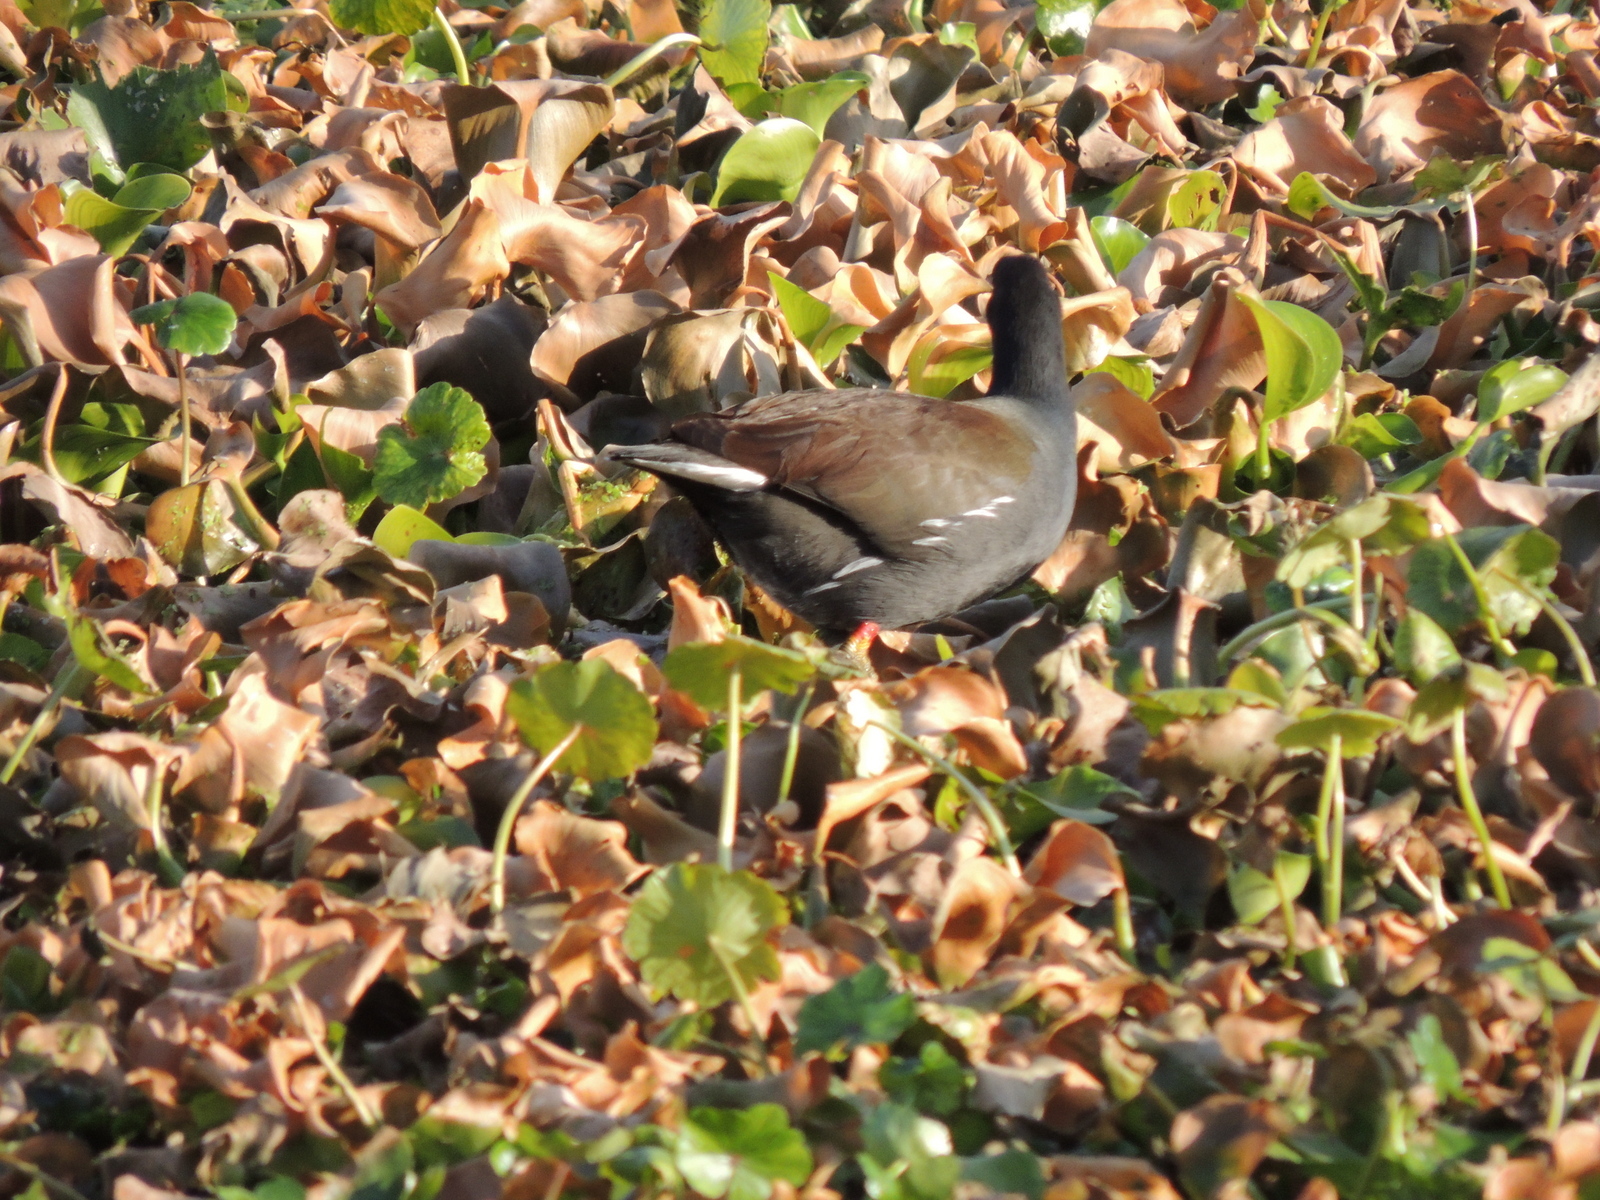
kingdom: Animalia
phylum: Chordata
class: Aves
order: Gruiformes
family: Rallidae
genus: Gallinula
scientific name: Gallinula chloropus
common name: Common moorhen
